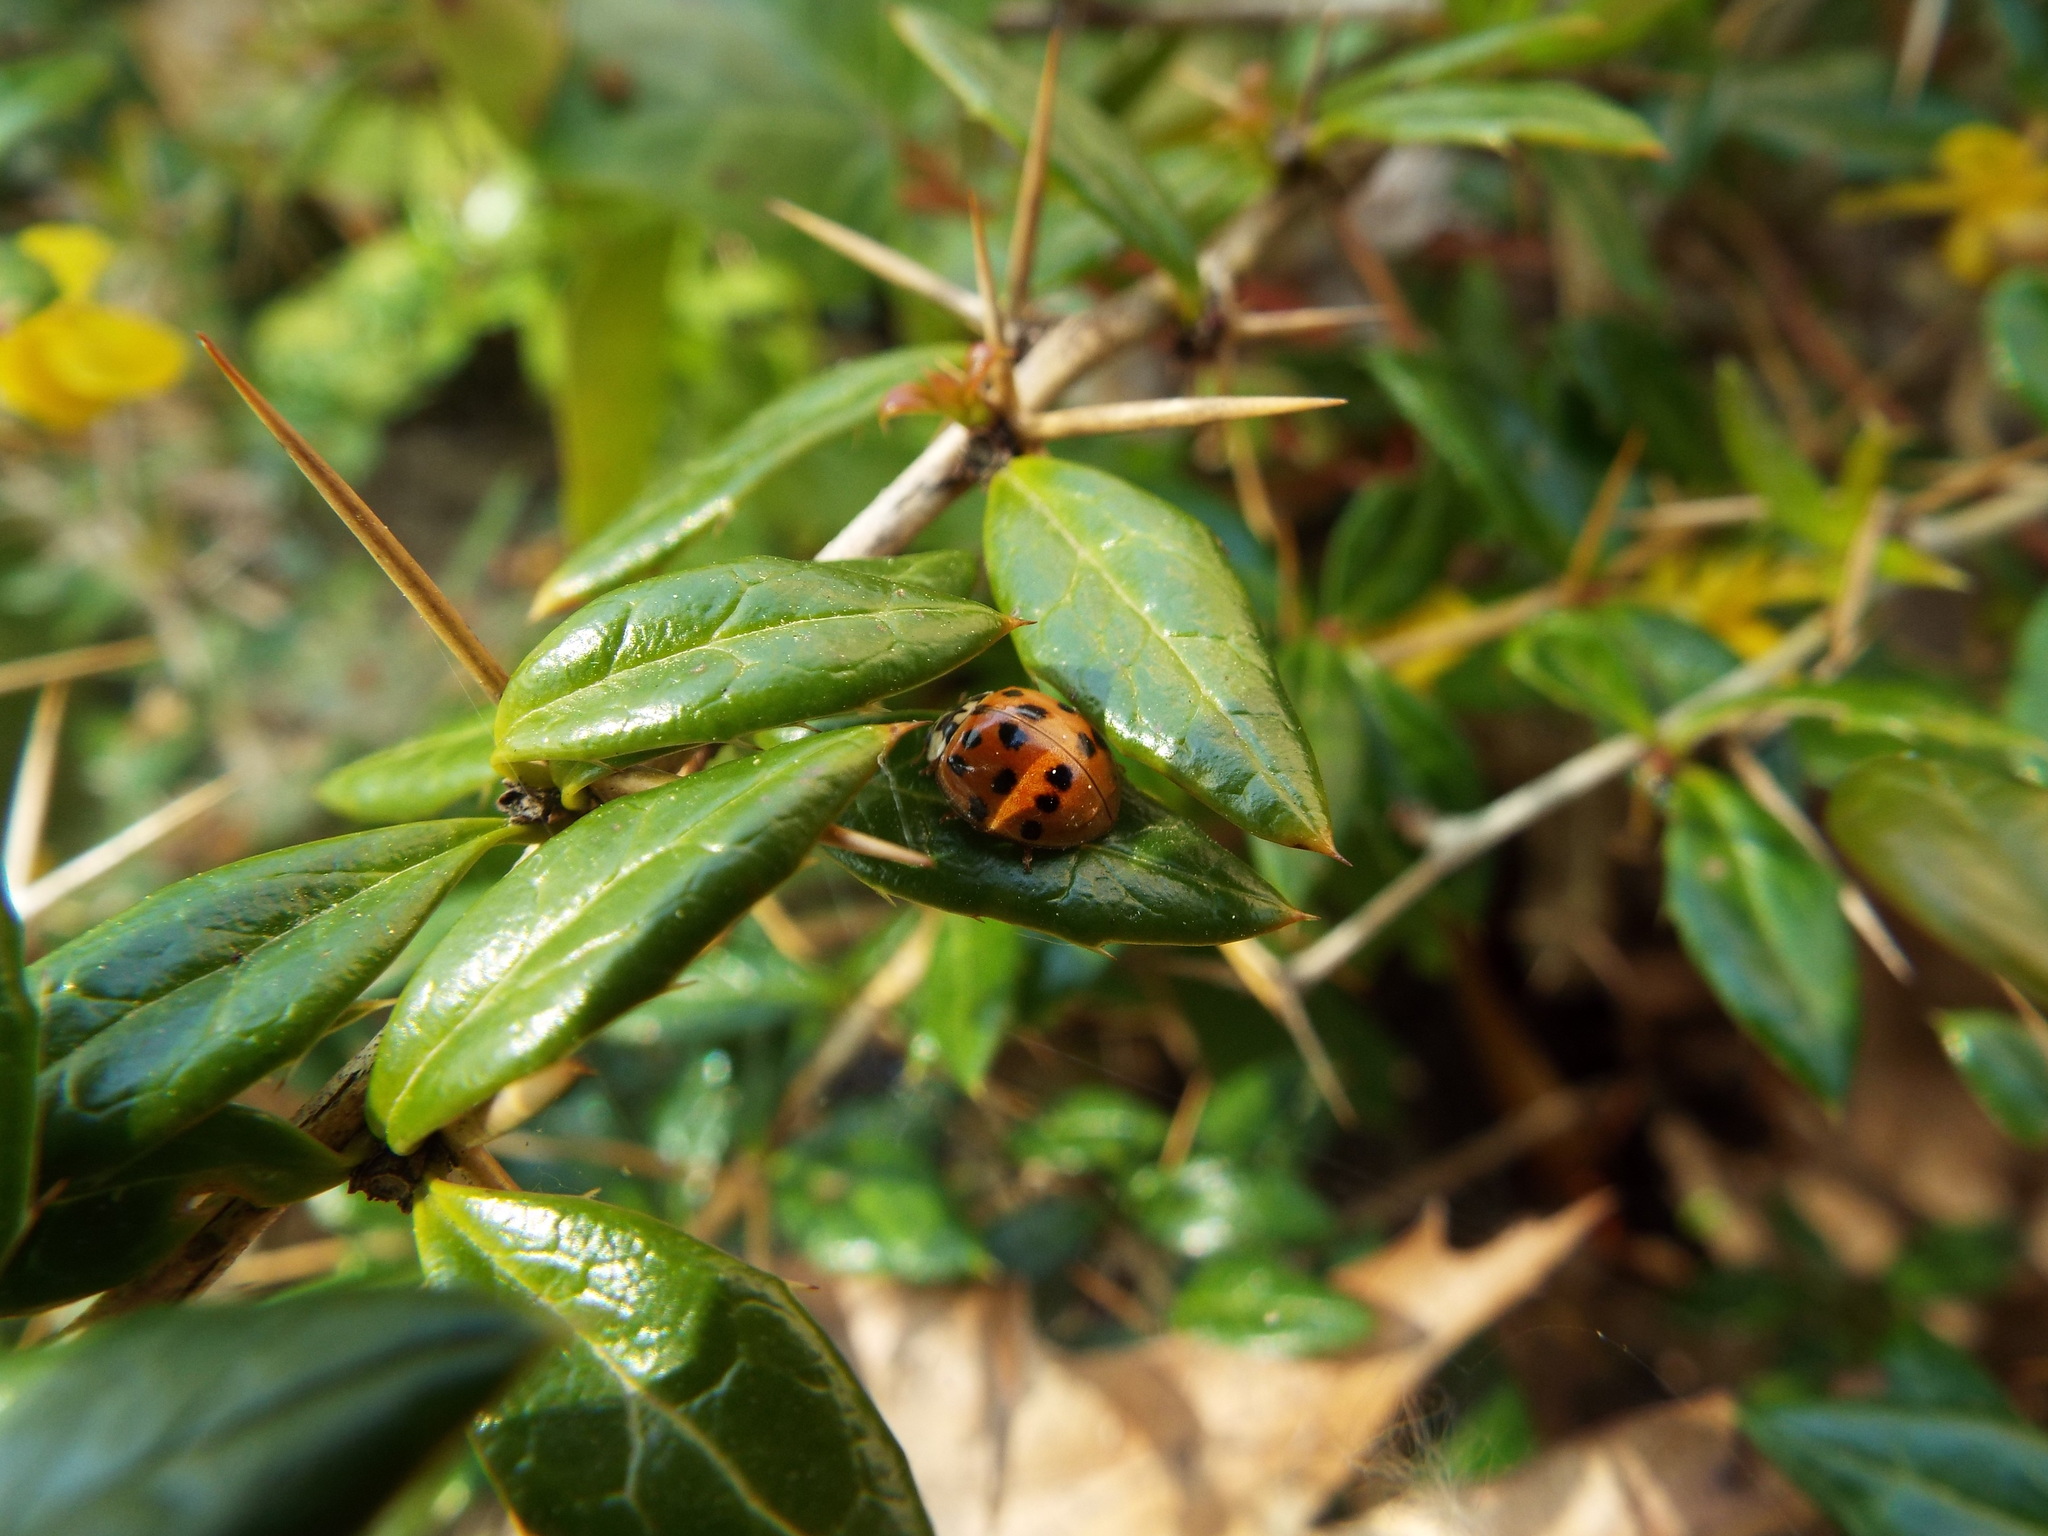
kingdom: Animalia
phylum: Arthropoda
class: Insecta
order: Coleoptera
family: Coccinellidae
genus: Harmonia
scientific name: Harmonia axyridis
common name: Harlequin ladybird
